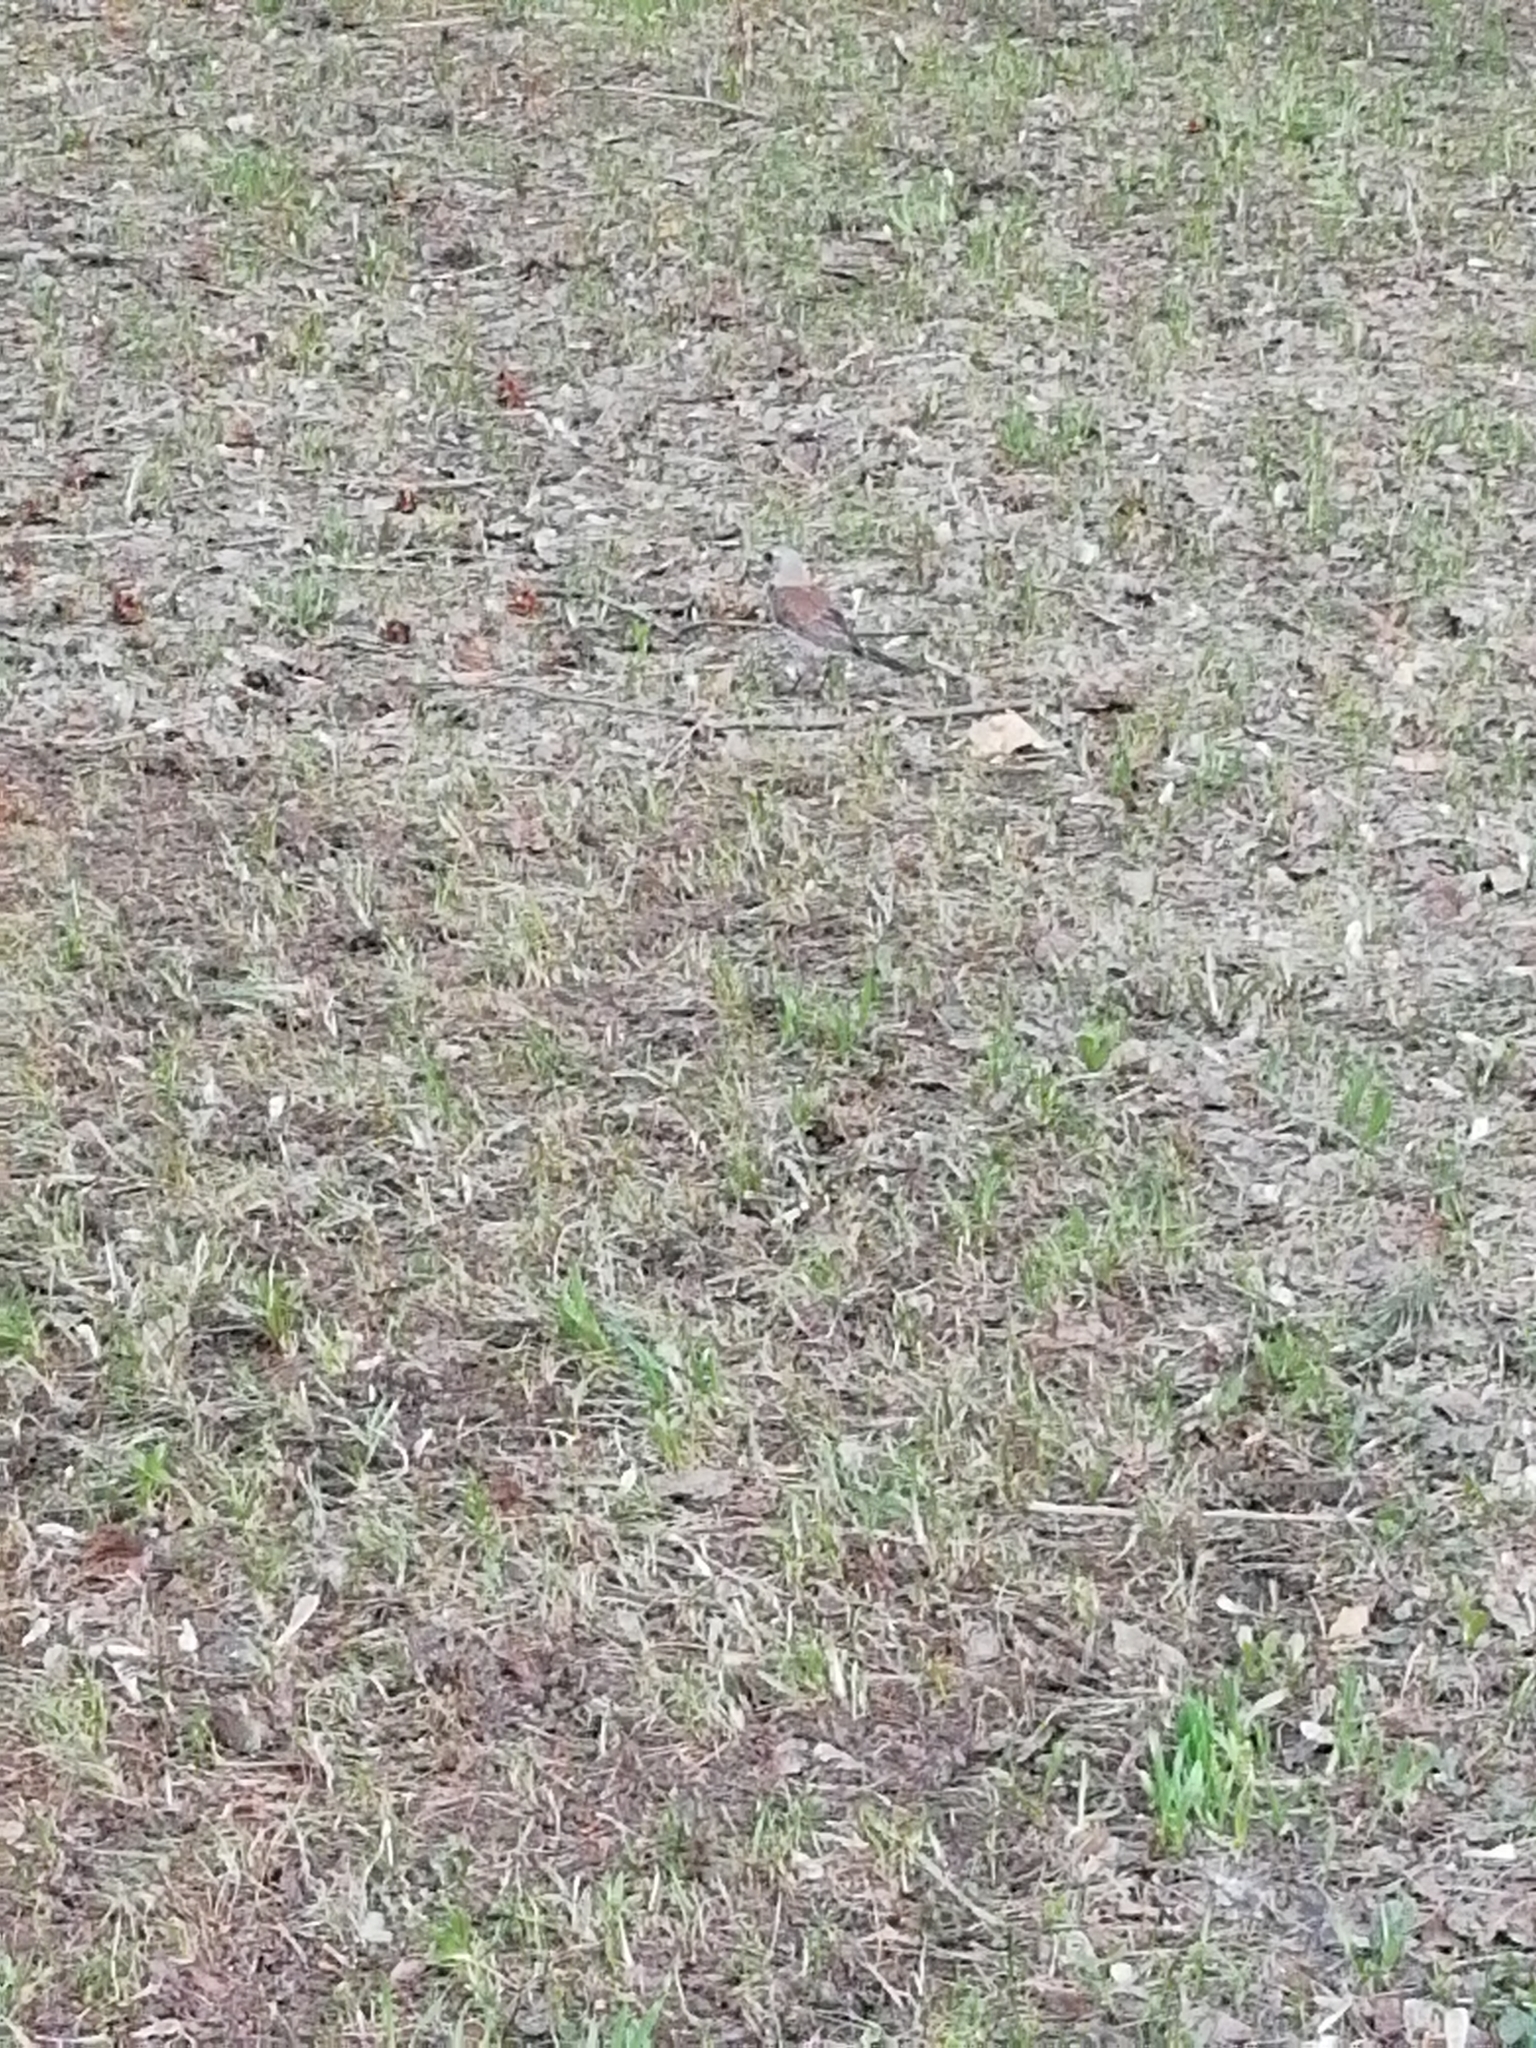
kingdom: Animalia
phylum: Chordata
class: Aves
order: Passeriformes
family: Turdidae
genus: Turdus
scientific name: Turdus pilaris
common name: Fieldfare
